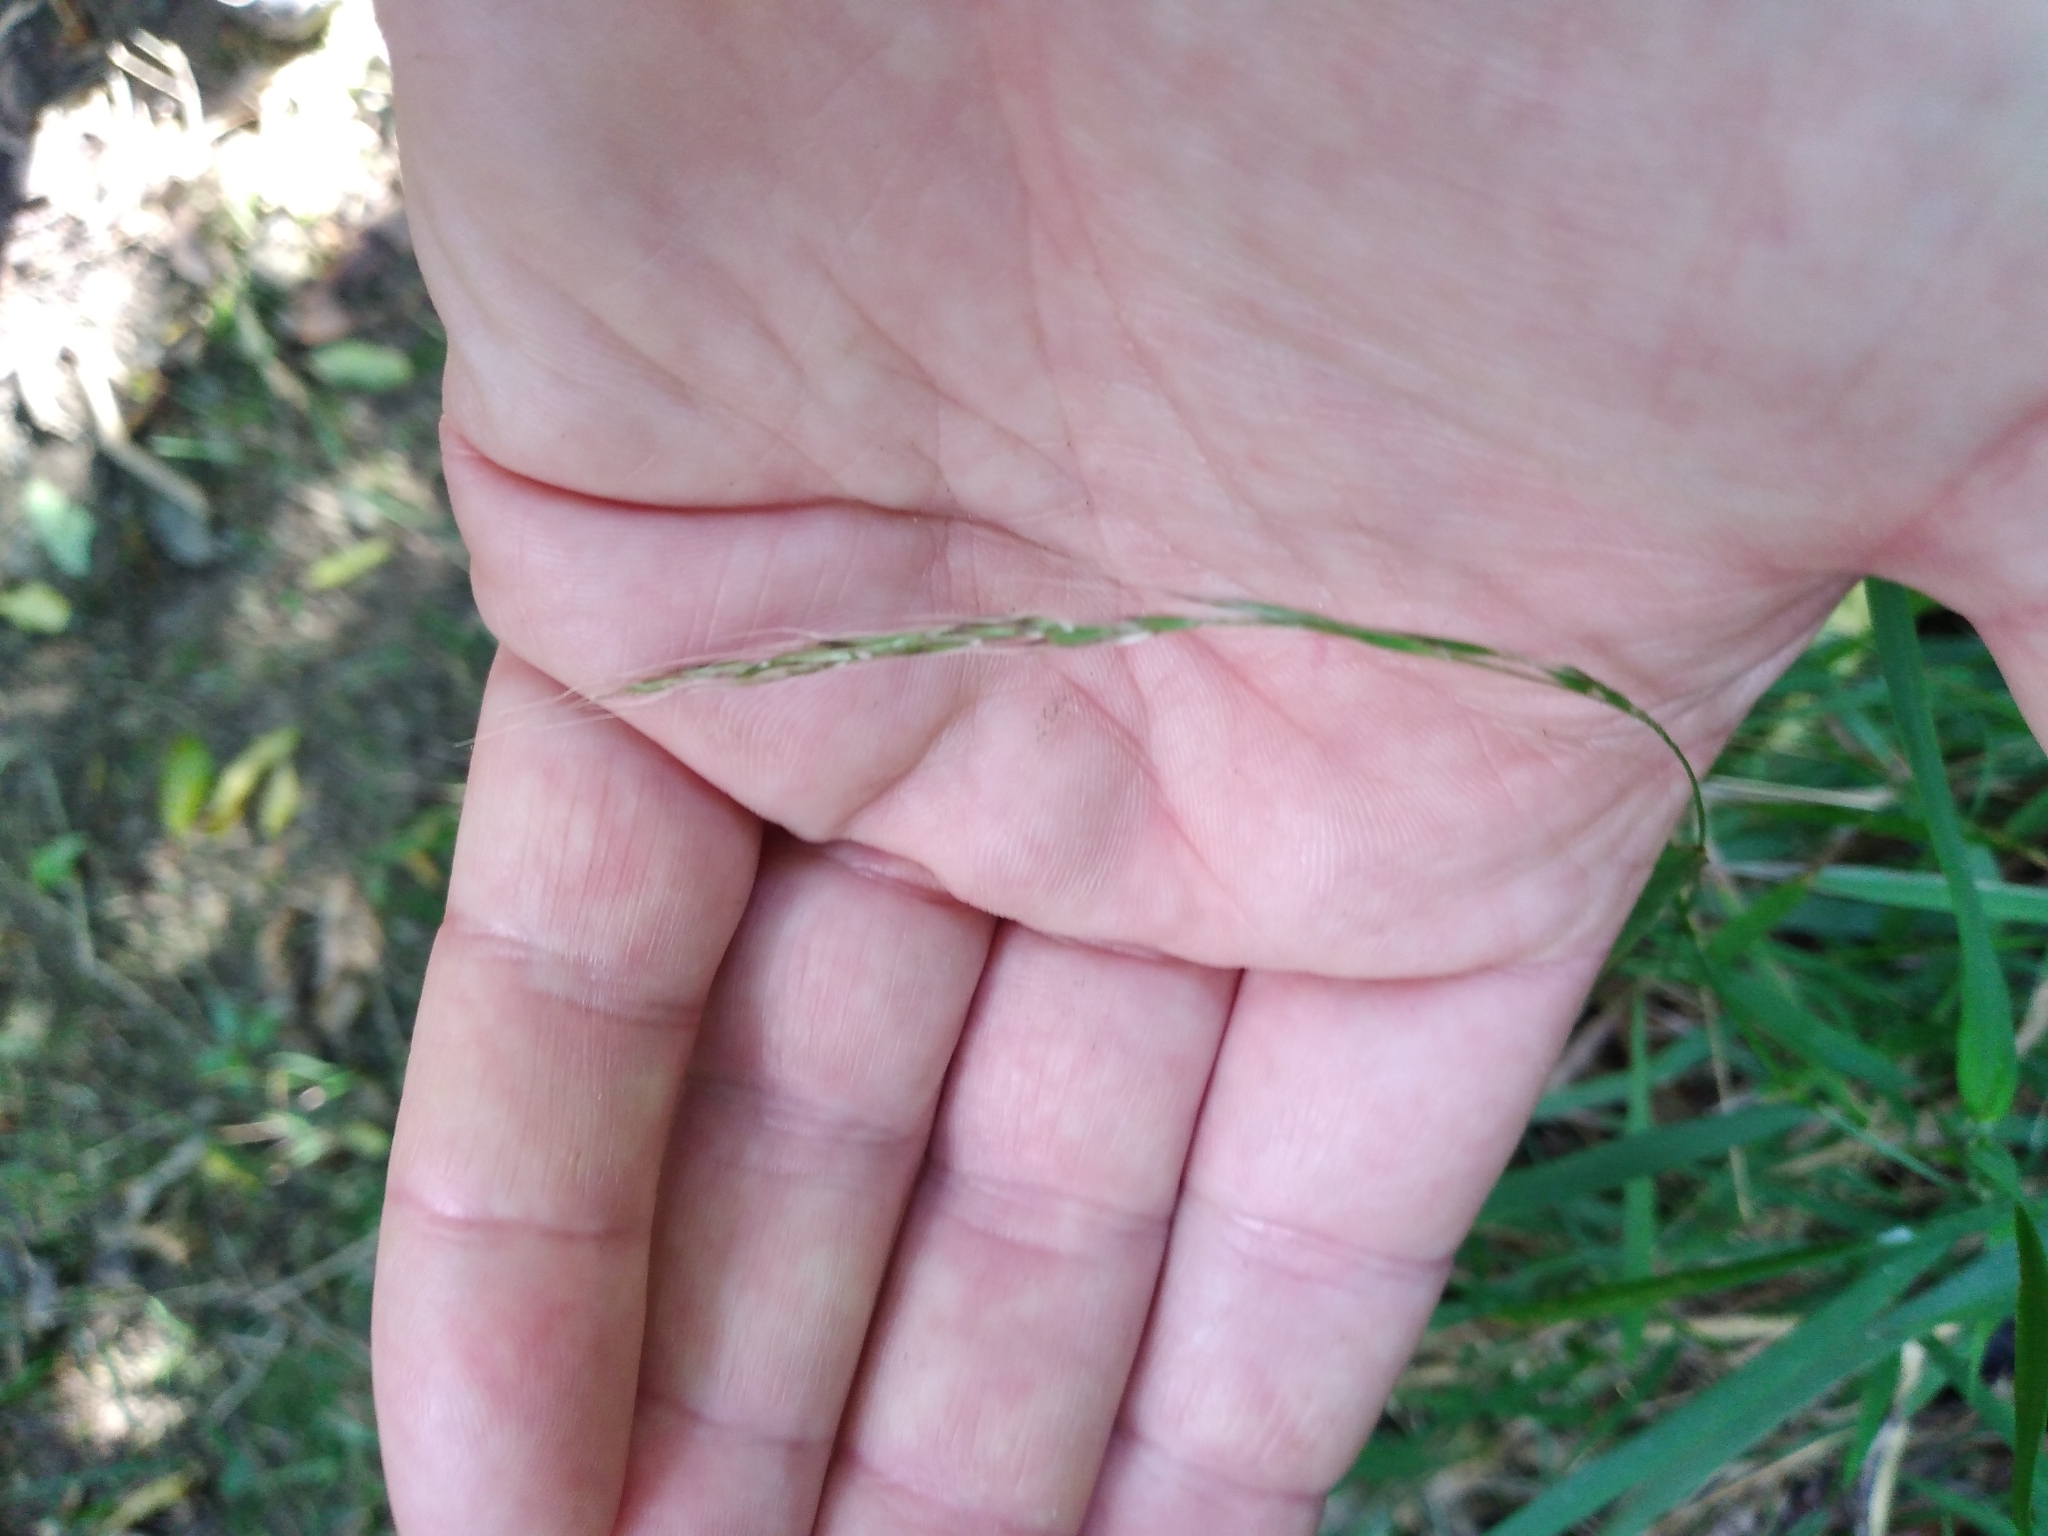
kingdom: Plantae
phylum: Tracheophyta
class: Liliopsida
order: Poales
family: Poaceae
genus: Microlaena
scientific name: Microlaena stipoides
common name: Meadow ricegrass
